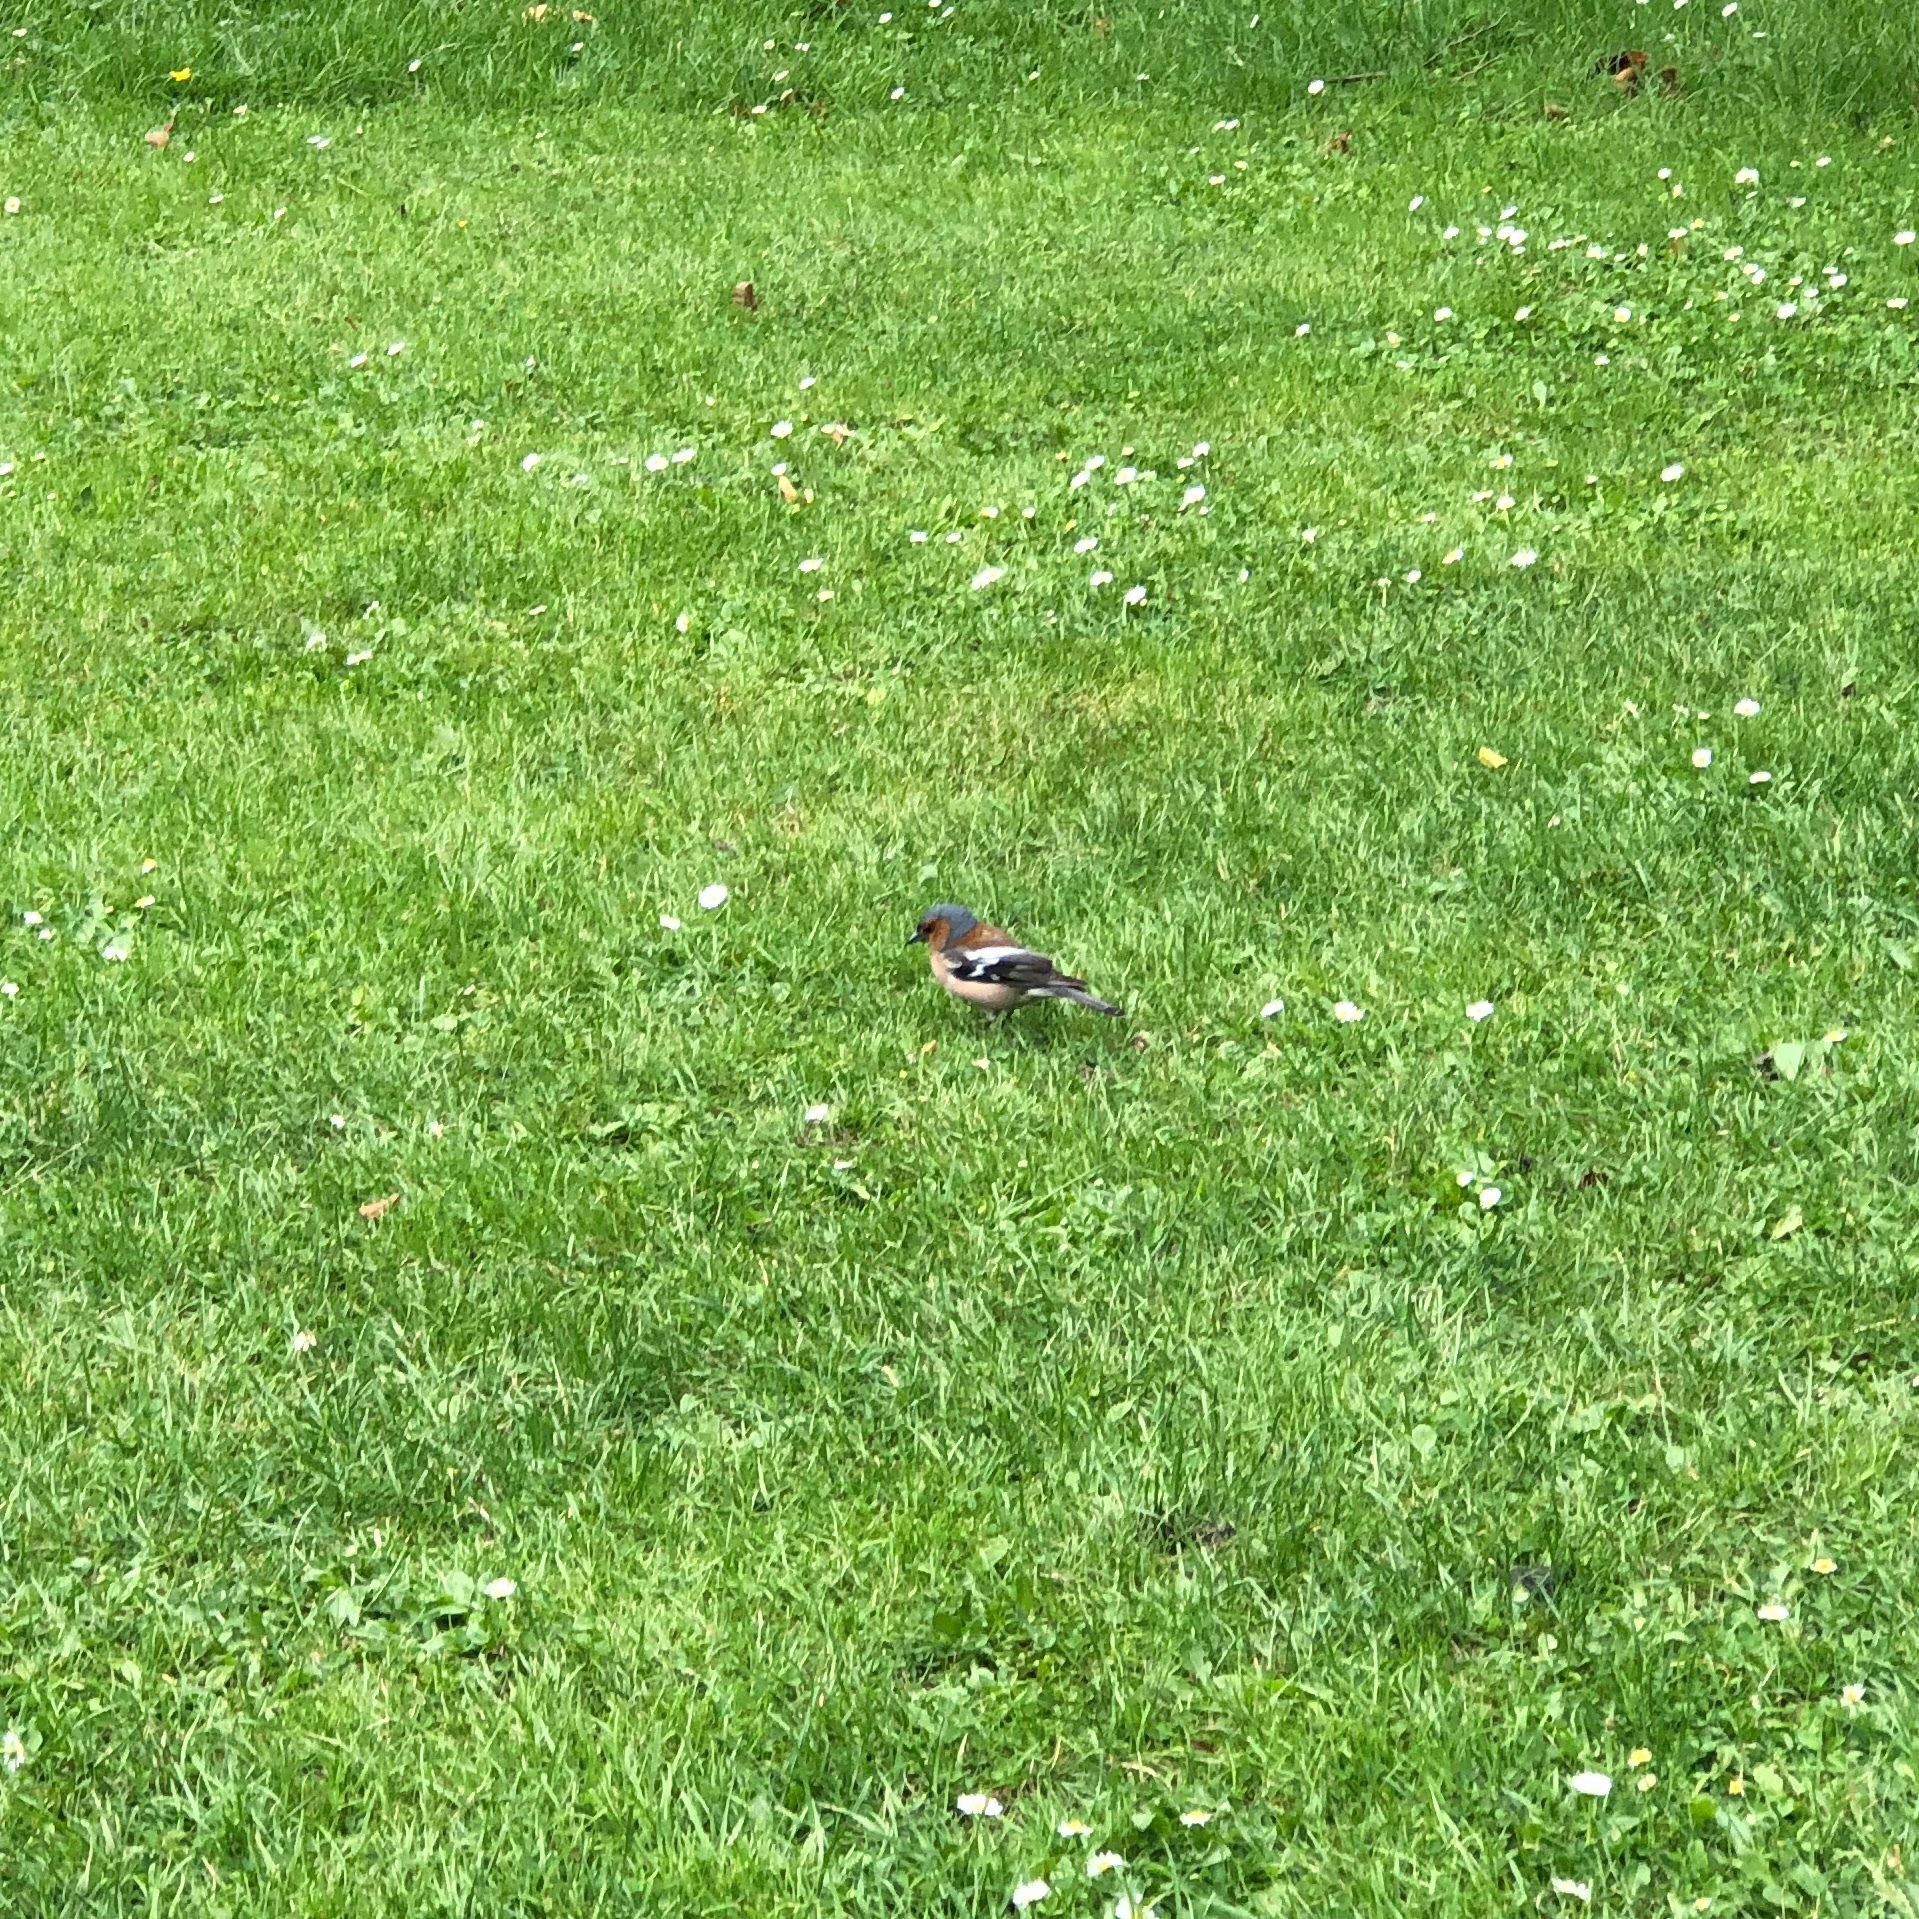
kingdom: Animalia
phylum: Chordata
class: Aves
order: Passeriformes
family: Fringillidae
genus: Fringilla
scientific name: Fringilla coelebs
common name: Common chaffinch
